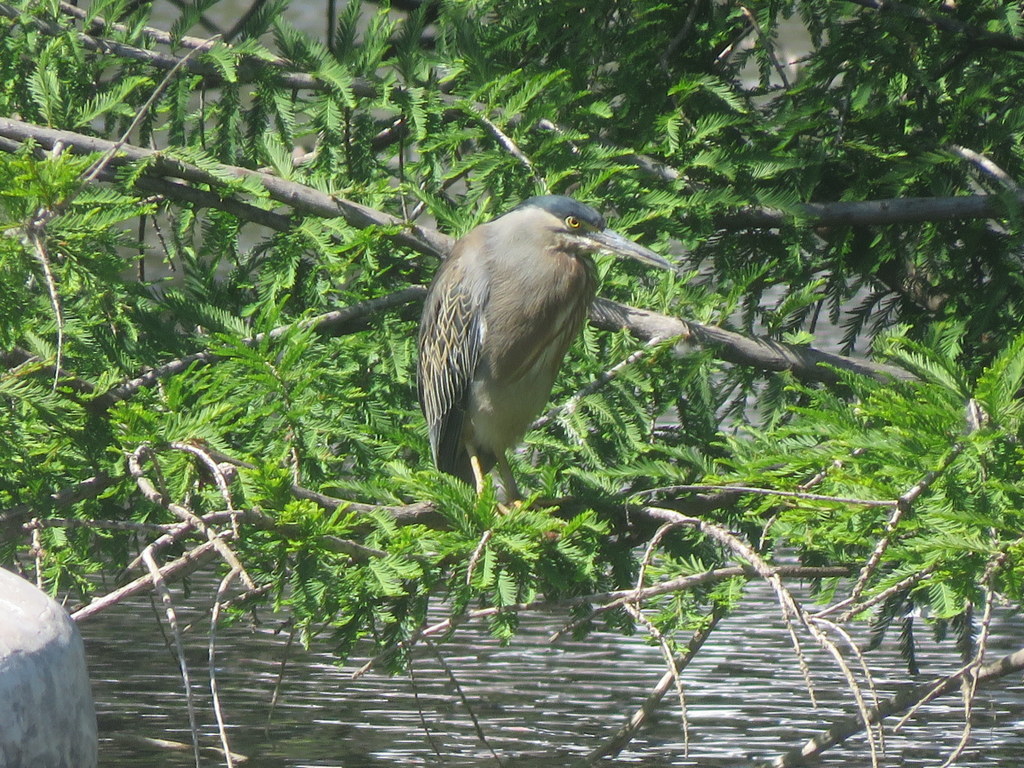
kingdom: Animalia
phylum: Chordata
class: Aves
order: Pelecaniformes
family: Ardeidae
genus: Butorides
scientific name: Butorides striata
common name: Striated heron
